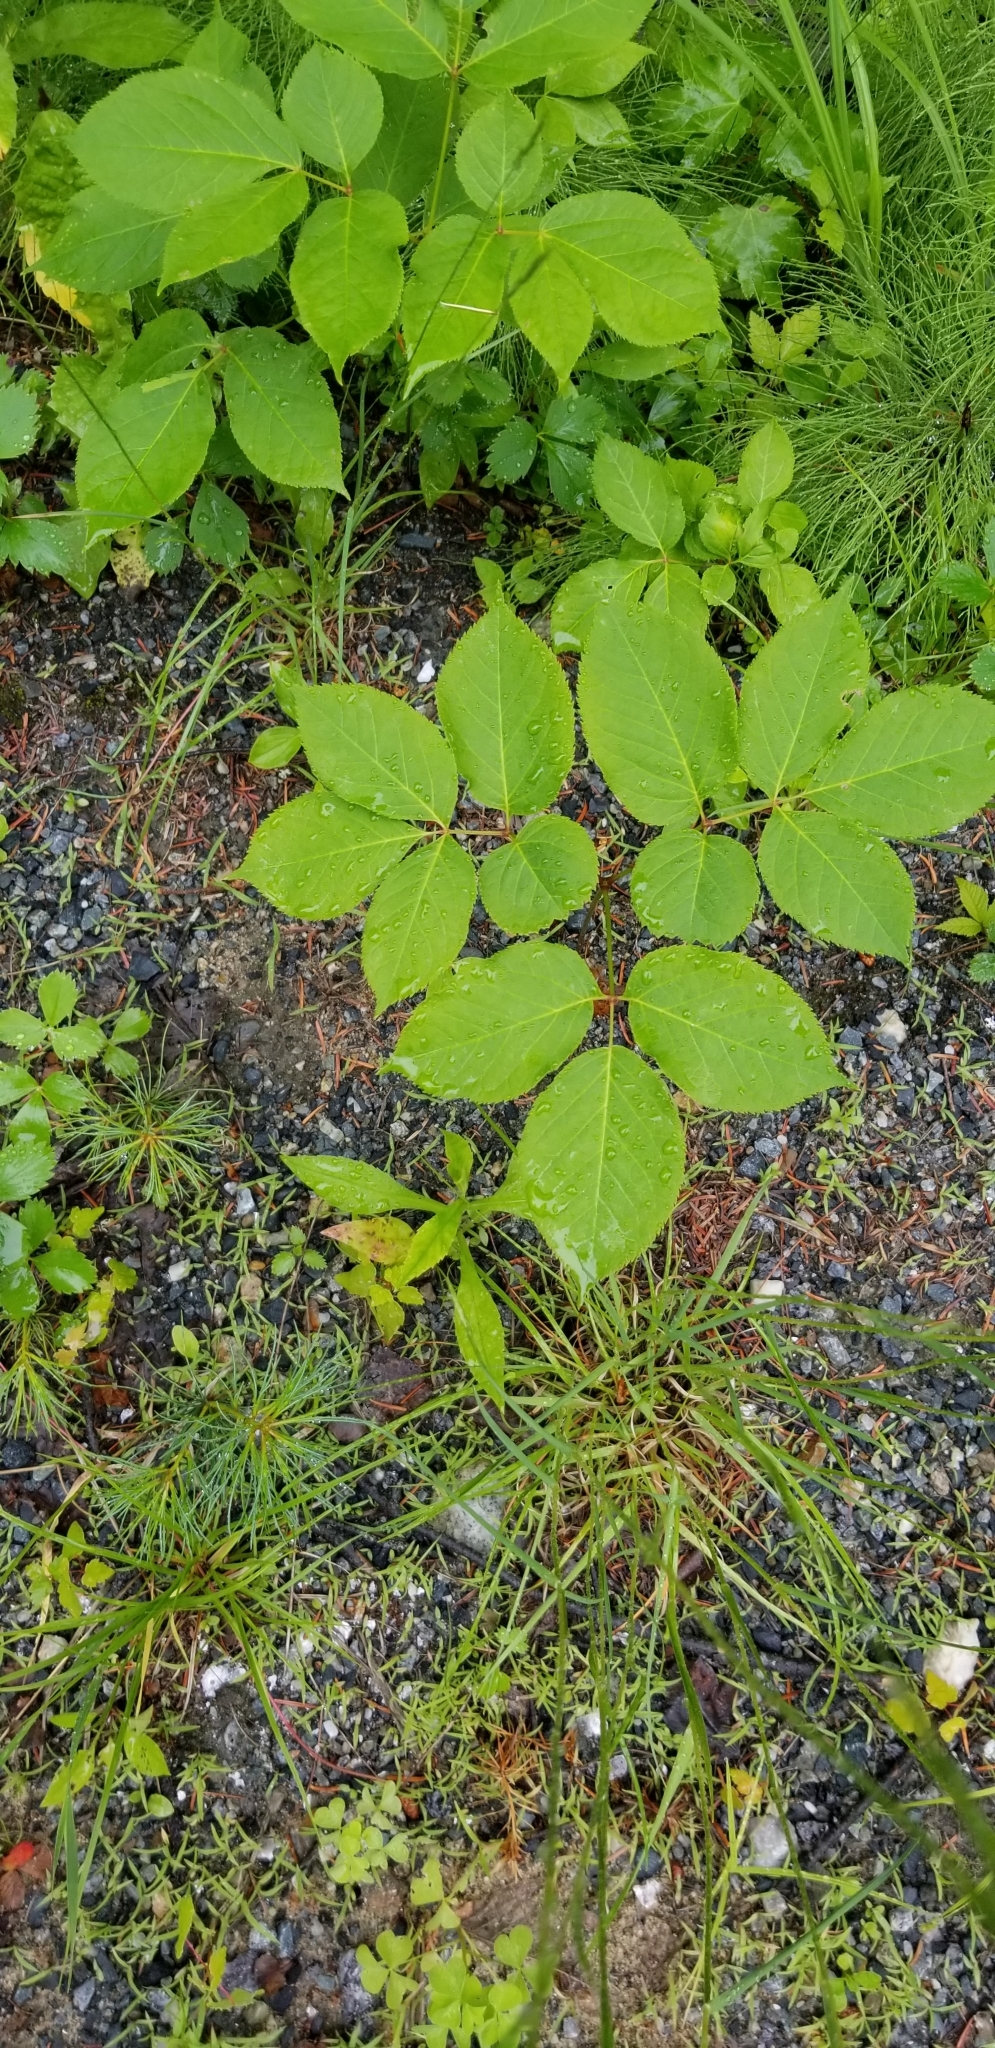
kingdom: Plantae
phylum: Tracheophyta
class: Magnoliopsida
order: Apiales
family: Araliaceae
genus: Aralia
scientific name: Aralia nudicaulis
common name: Wild sarsaparilla
